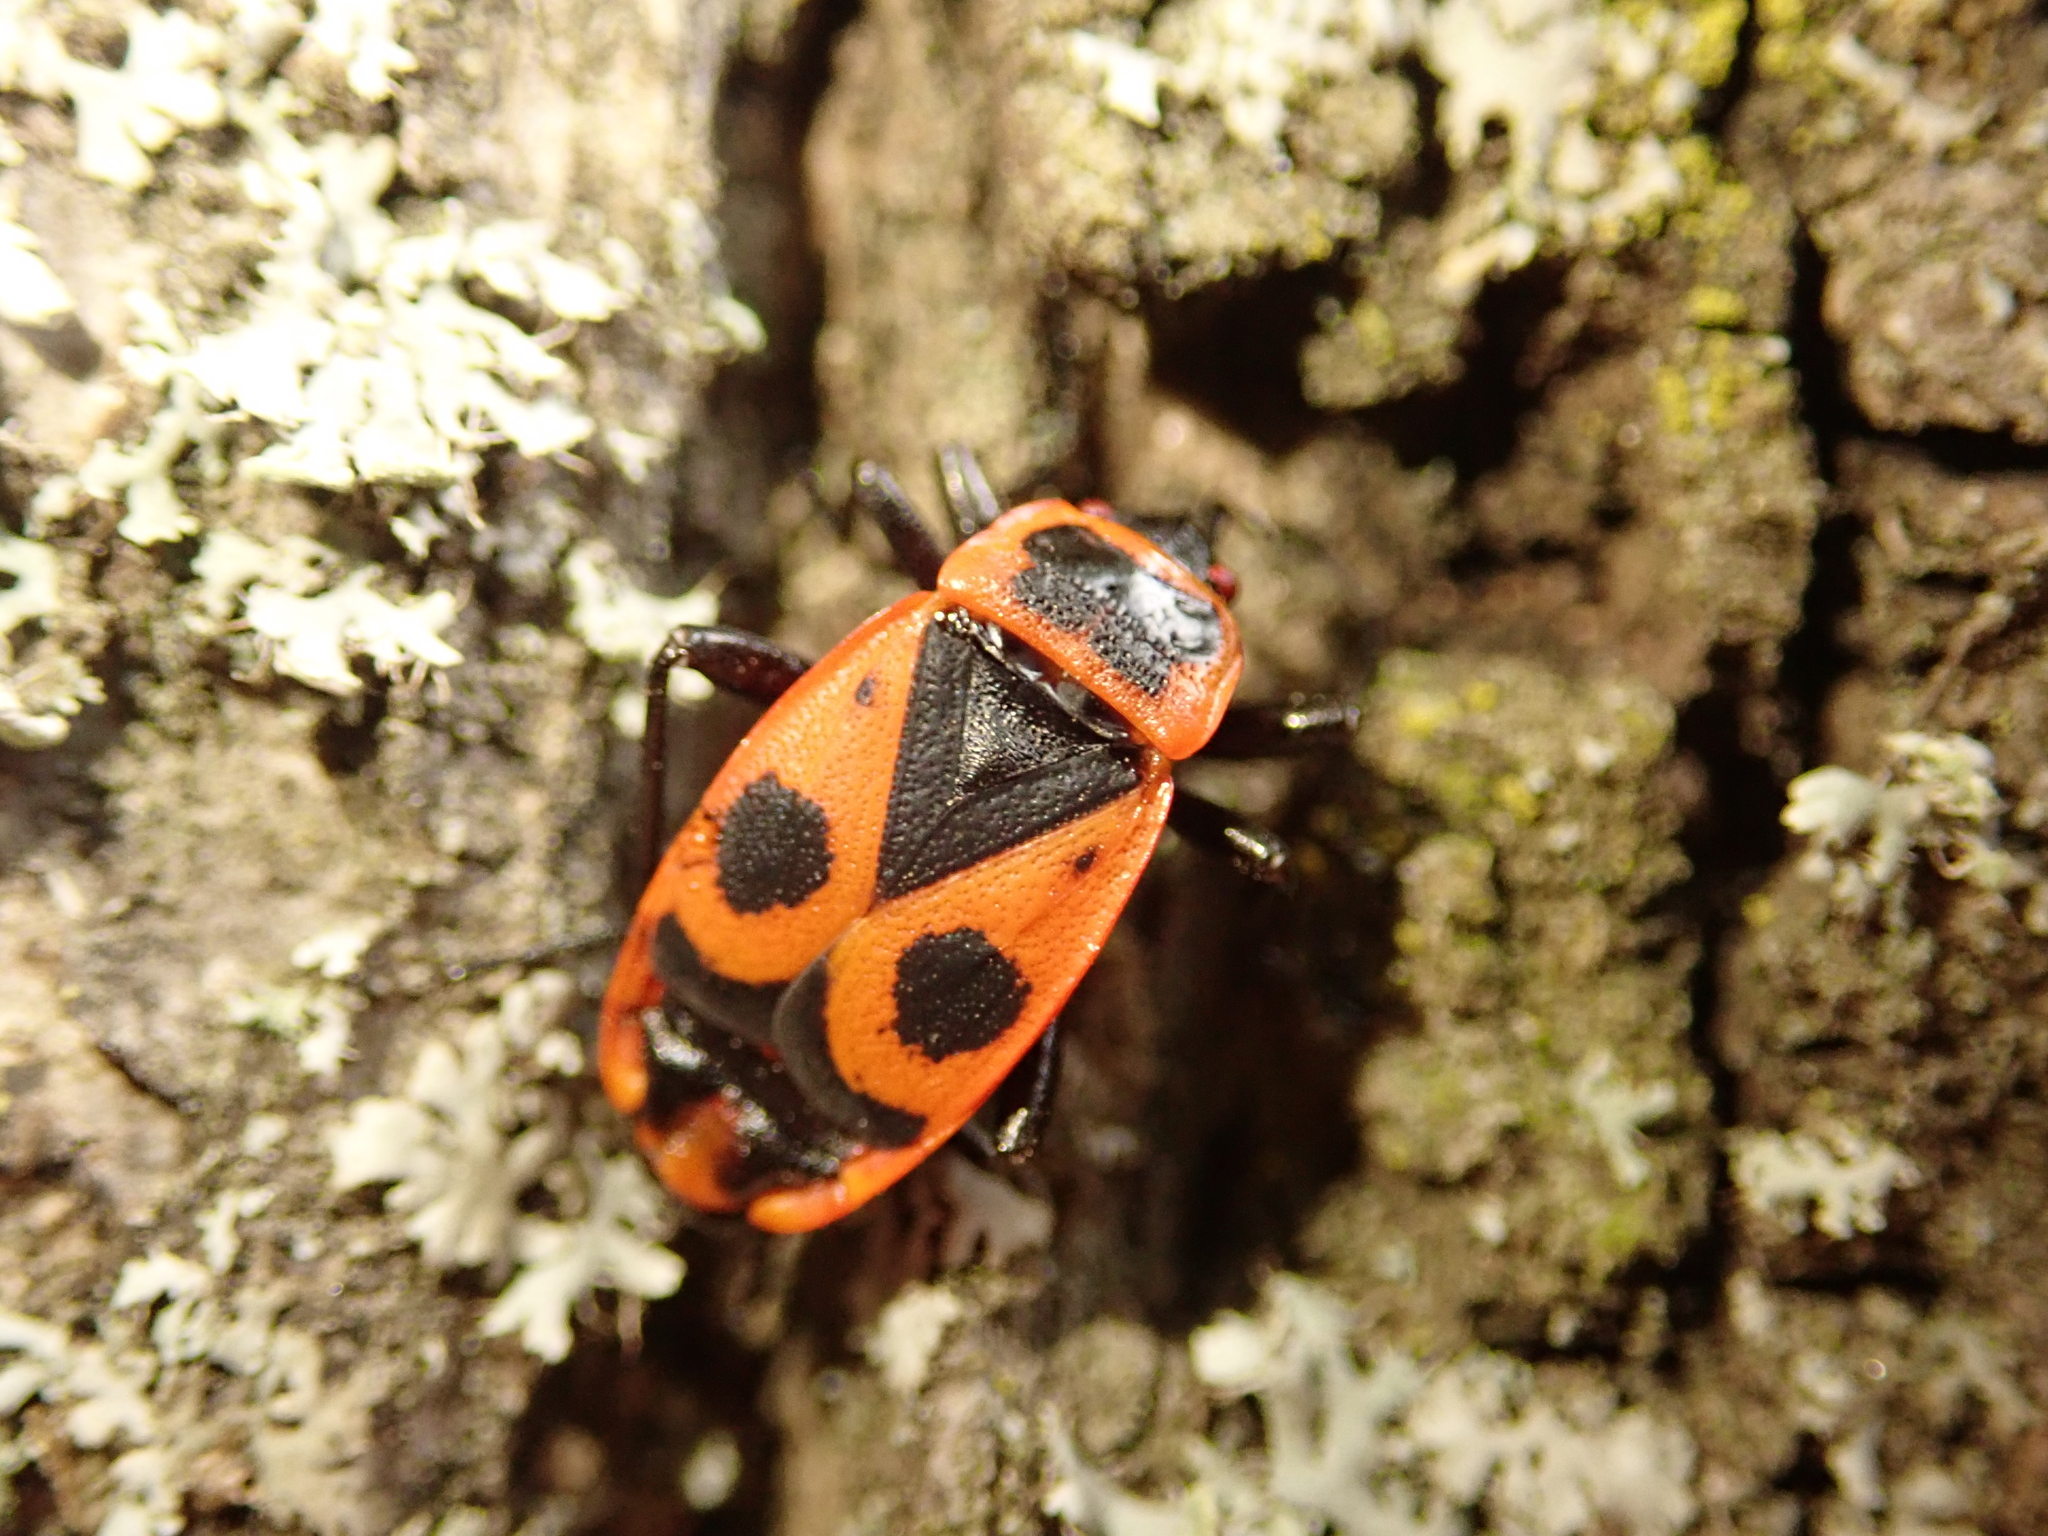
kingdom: Animalia
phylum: Arthropoda
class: Insecta
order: Hemiptera
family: Pyrrhocoridae
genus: Pyrrhocoris
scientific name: Pyrrhocoris apterus
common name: Firebug
